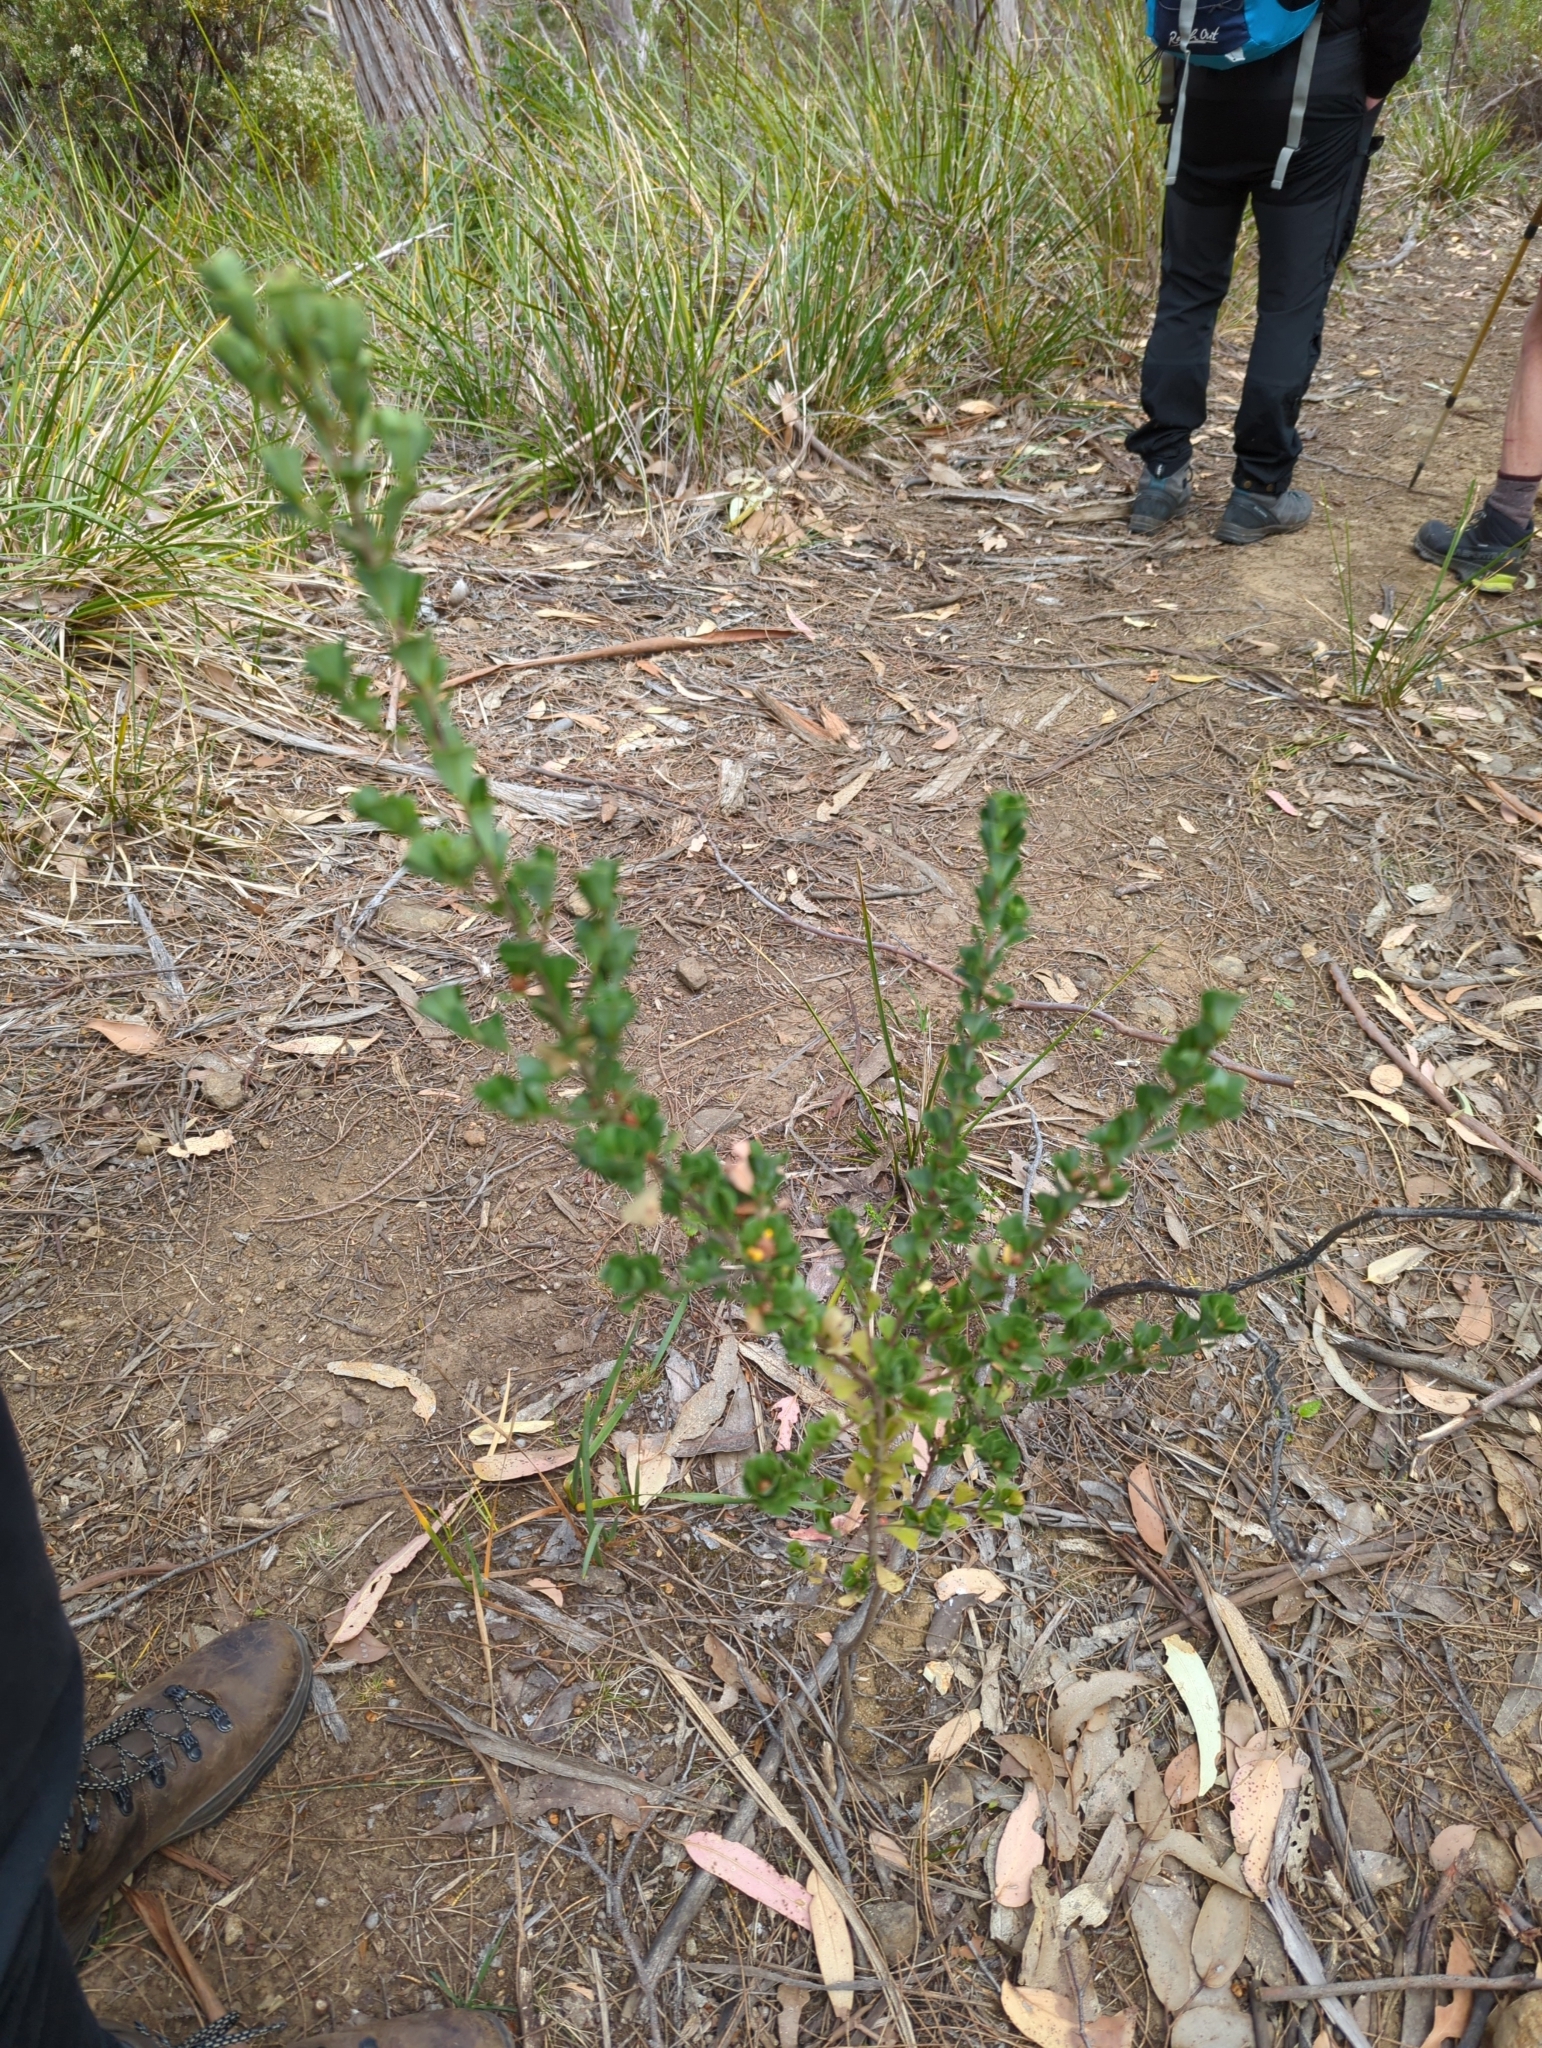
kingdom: Plantae
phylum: Tracheophyta
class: Magnoliopsida
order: Fabales
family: Fabaceae
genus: Pultenaea
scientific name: Pultenaea daphnoides
